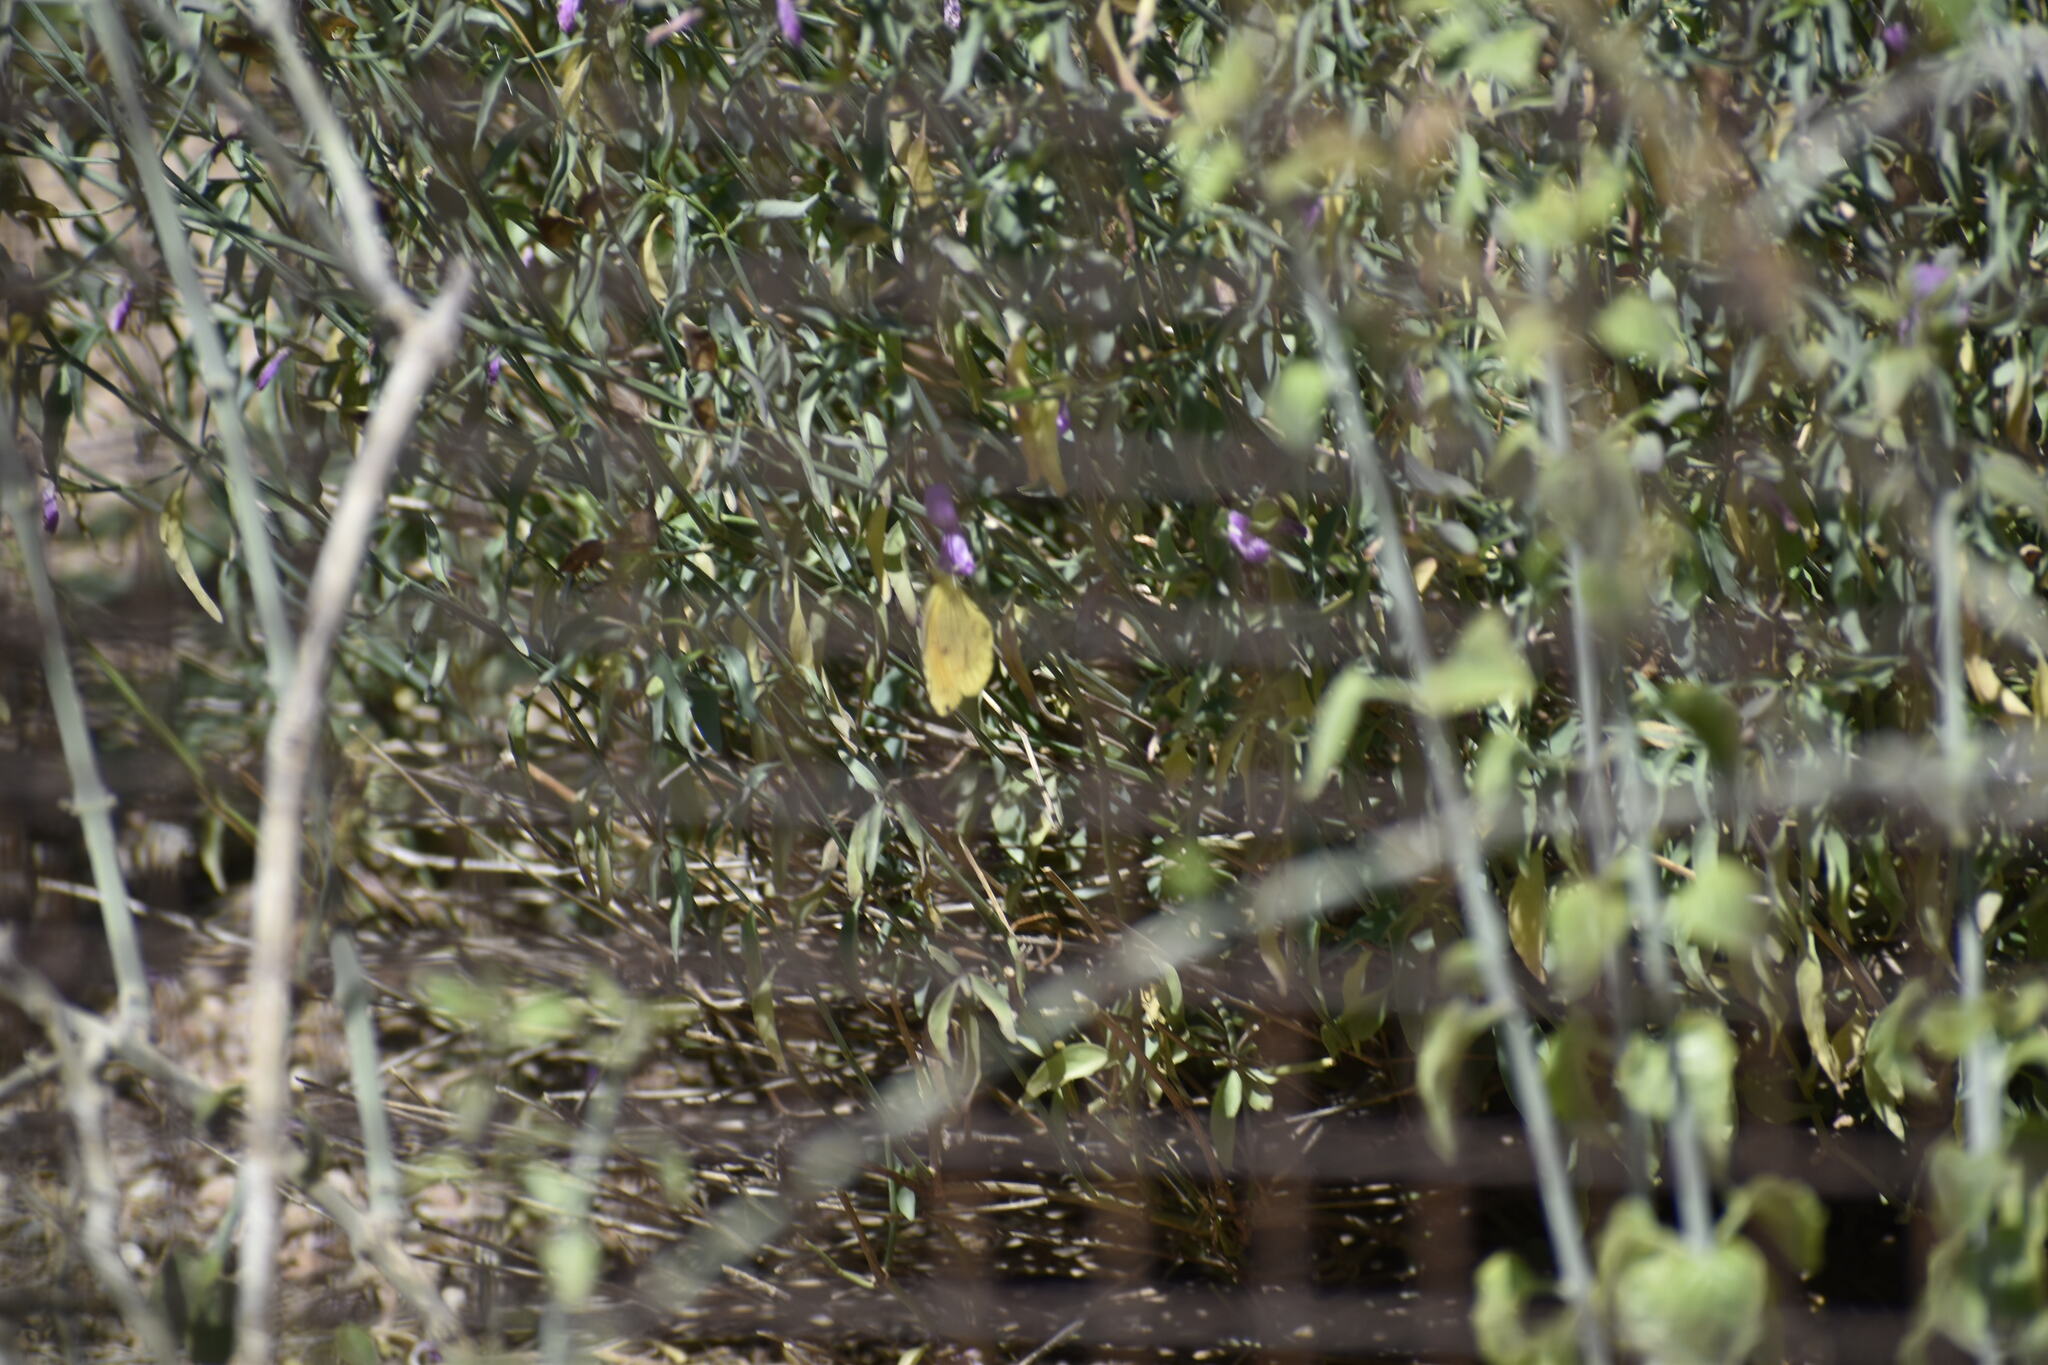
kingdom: Animalia
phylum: Arthropoda
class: Insecta
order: Lepidoptera
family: Pieridae
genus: Abaeis
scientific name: Abaeis nicippe
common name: Sleepy orange
